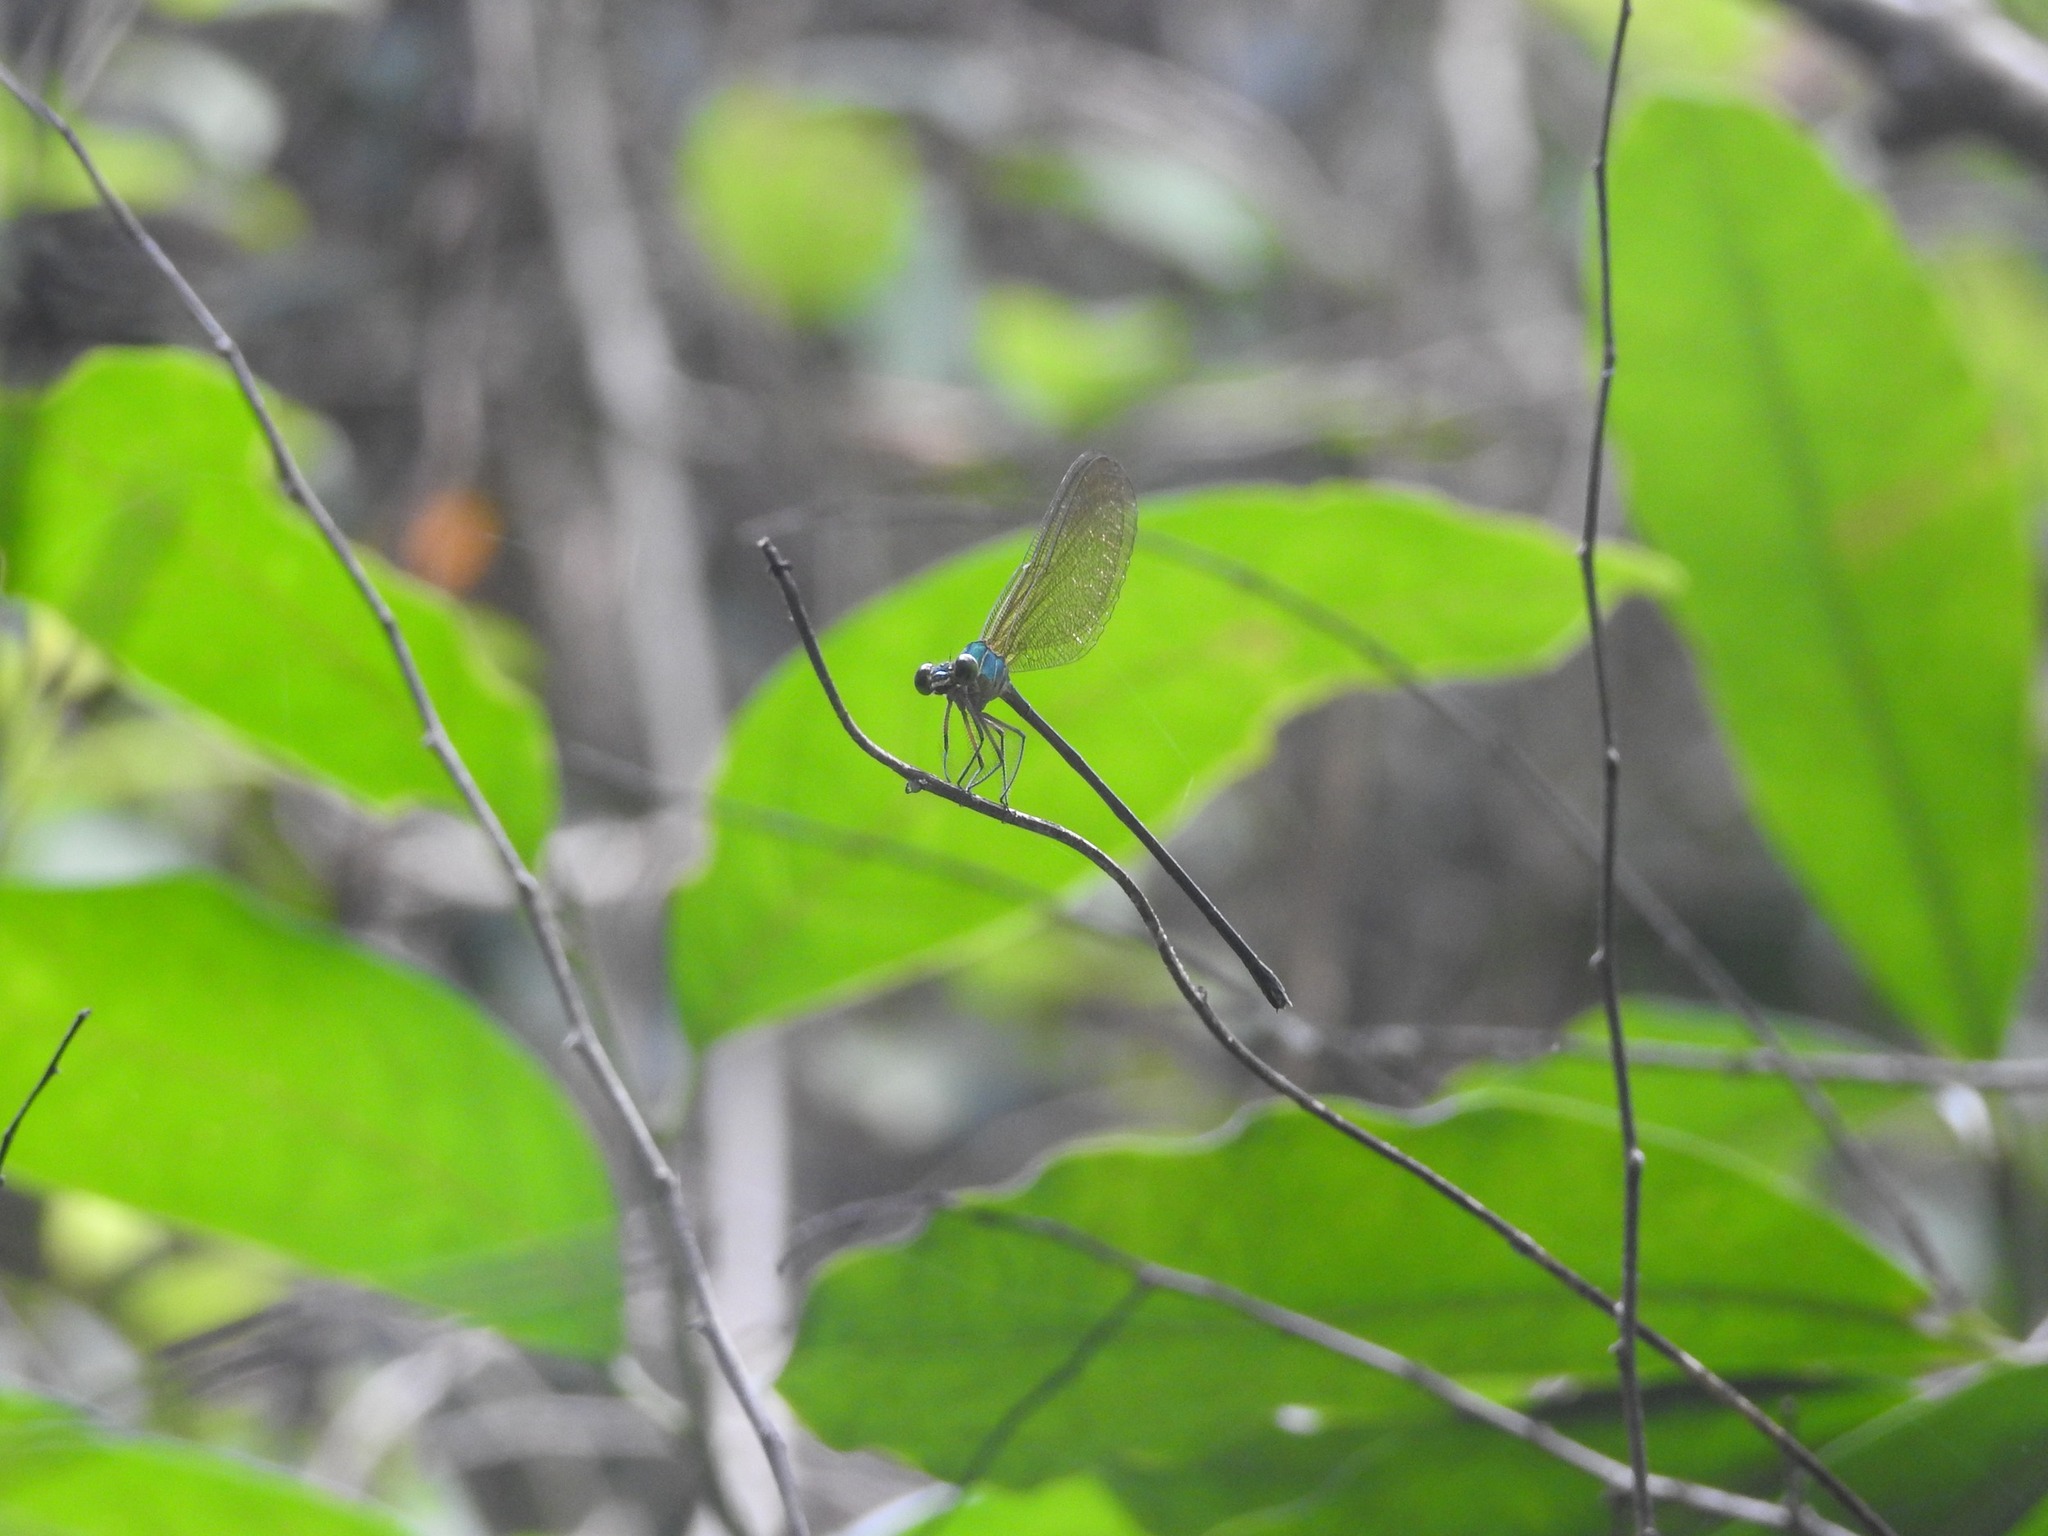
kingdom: Animalia
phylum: Arthropoda
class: Insecta
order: Odonata
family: Calopterygidae
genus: Vestalis
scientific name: Vestalis gracilis
